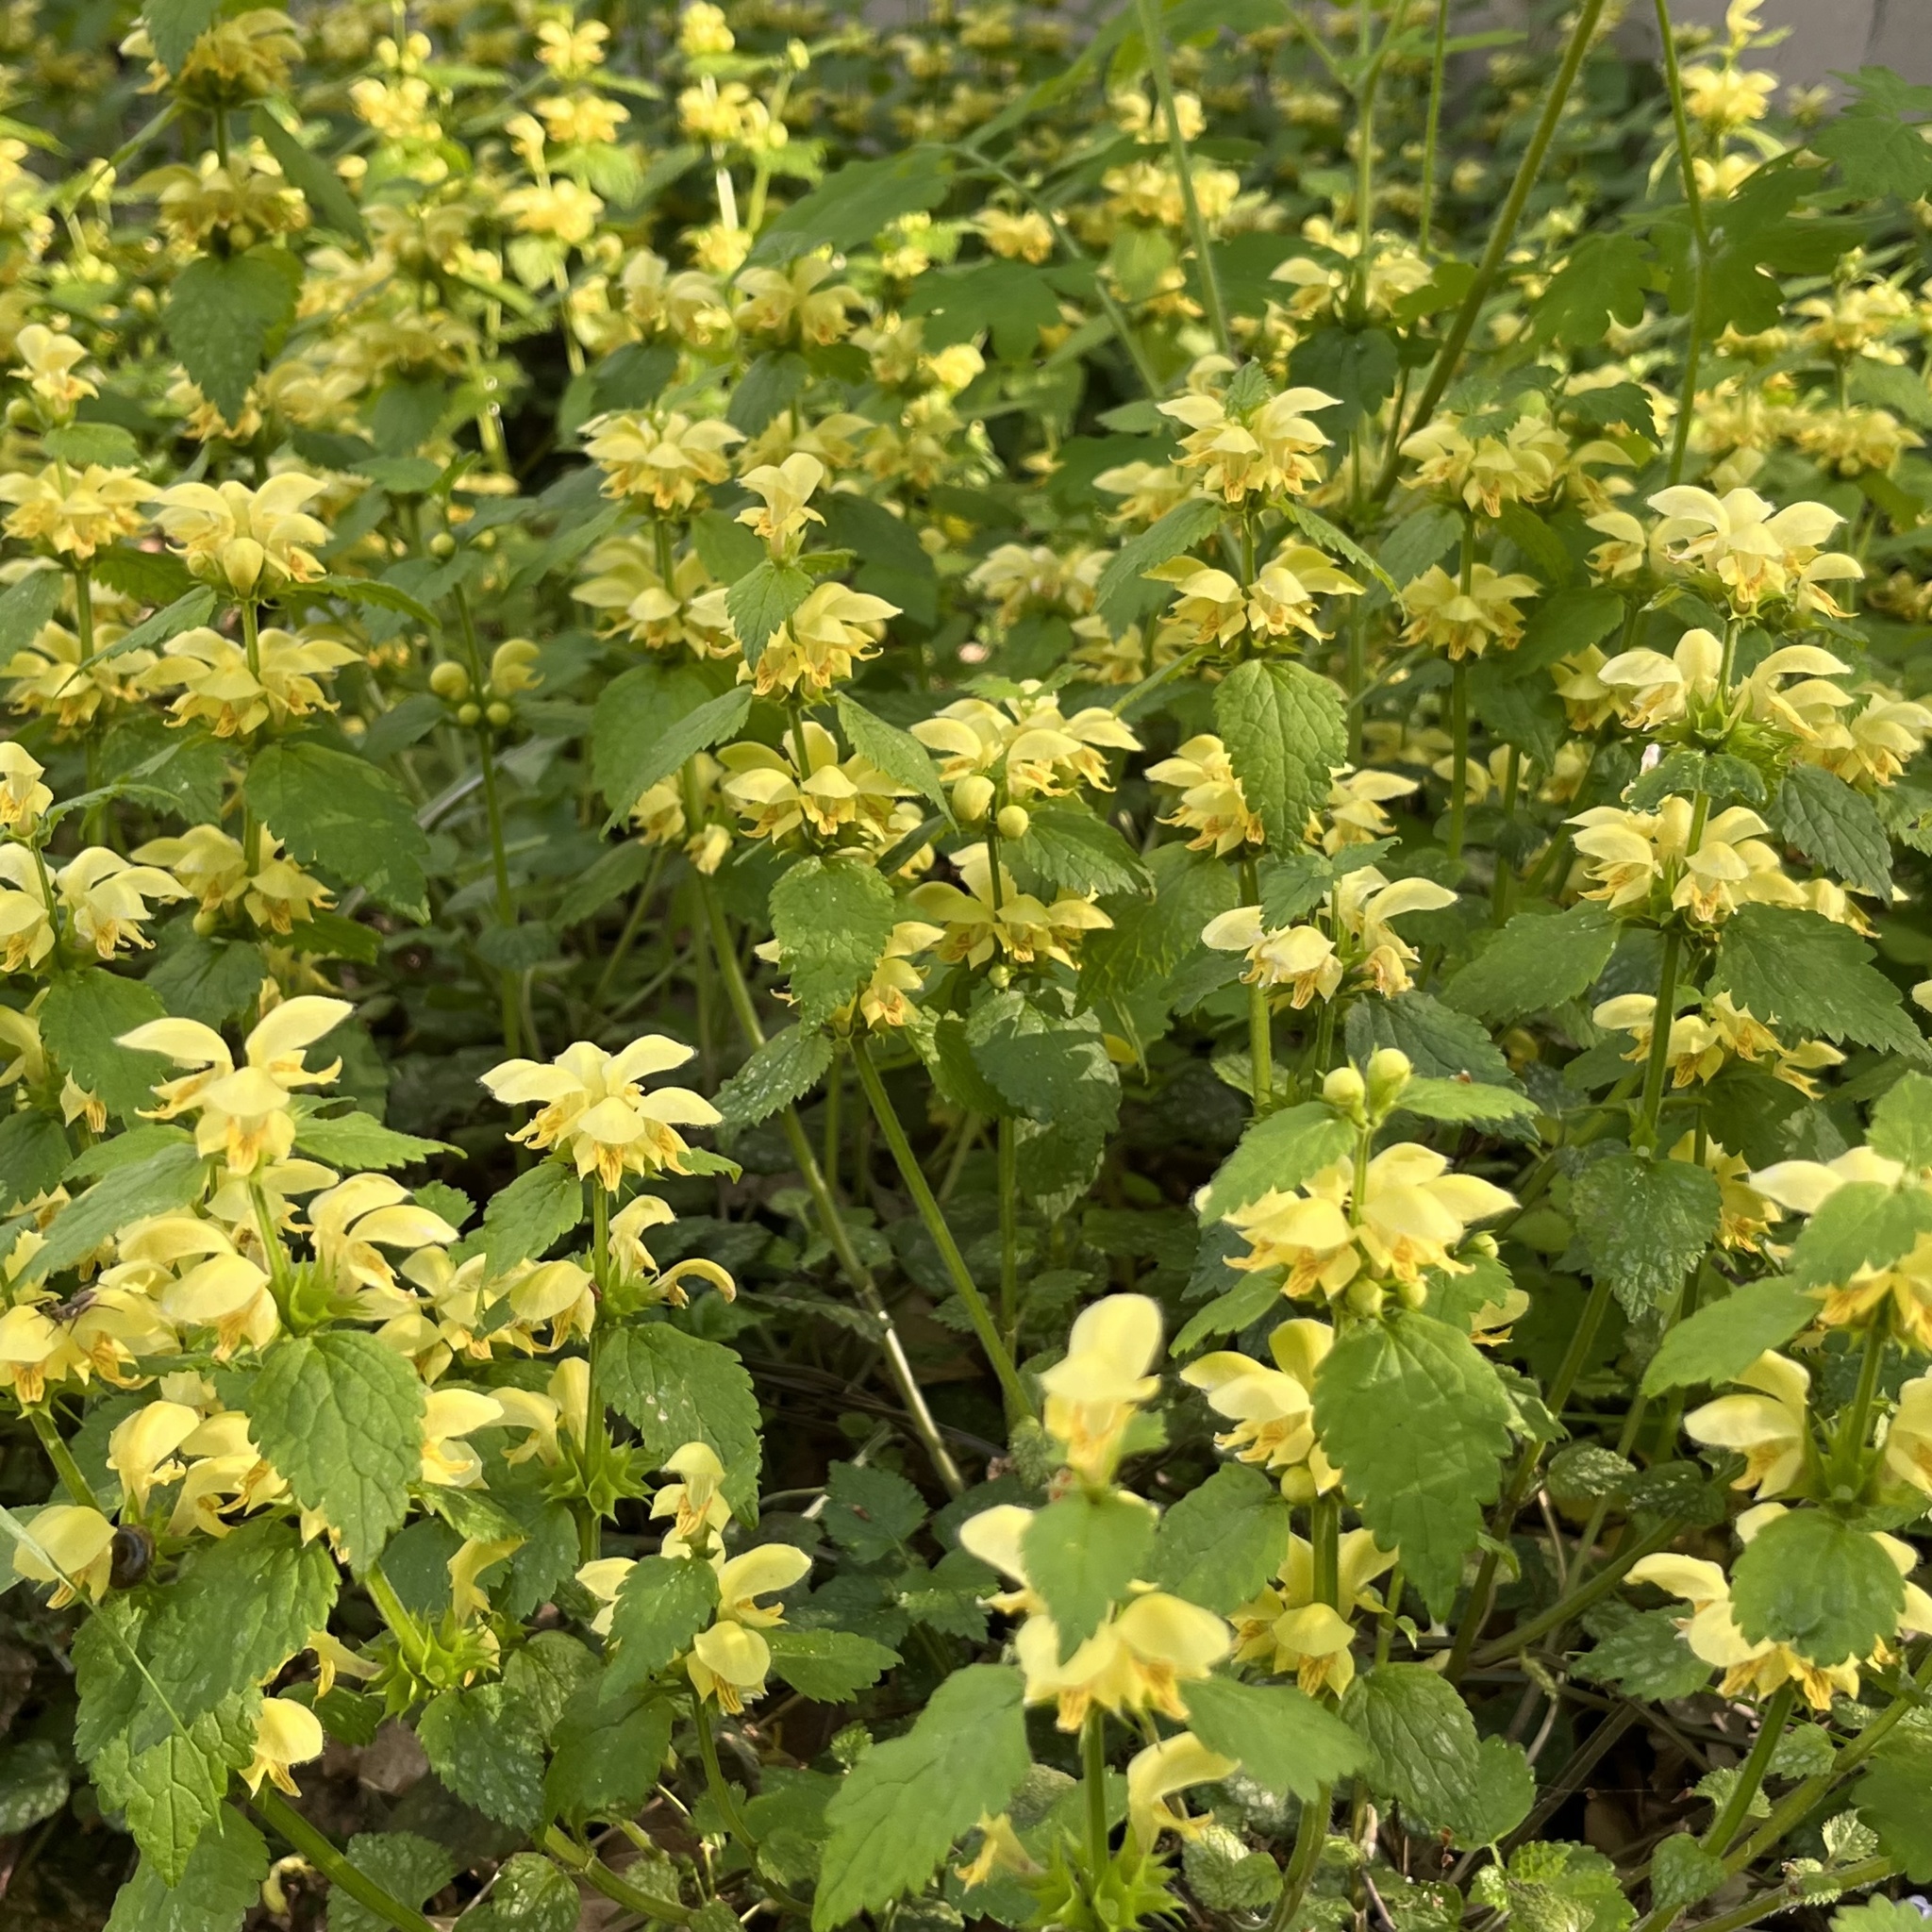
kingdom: Plantae
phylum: Tracheophyta
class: Magnoliopsida
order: Lamiales
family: Lamiaceae
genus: Lamium
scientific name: Lamium galeobdolon
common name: Yellow archangel
